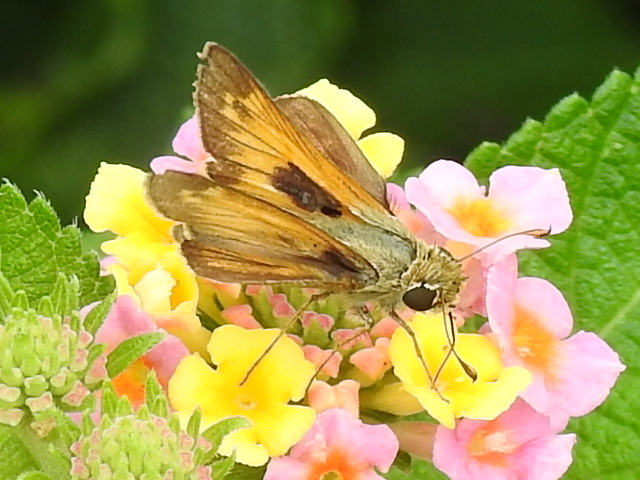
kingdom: Animalia
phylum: Arthropoda
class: Insecta
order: Lepidoptera
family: Hesperiidae
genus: Atalopedes
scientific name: Atalopedes
